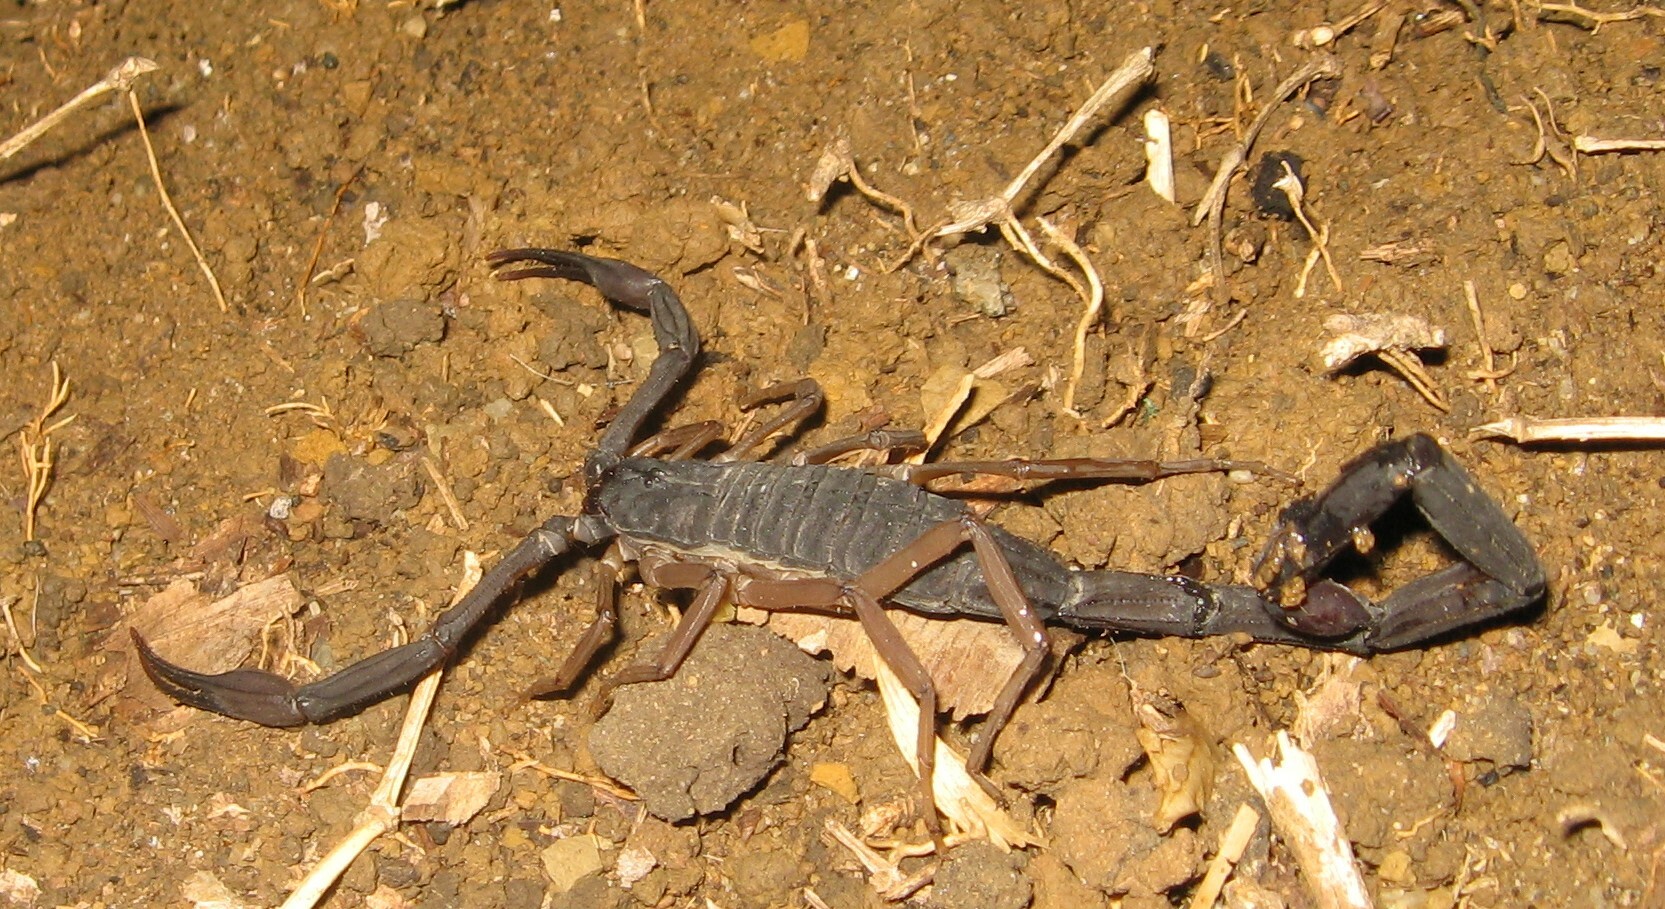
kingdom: Animalia
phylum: Arthropoda
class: Arachnida
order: Scorpiones
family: Buthidae
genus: Centruroides
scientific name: Centruroides gracilis
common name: Scorpions
